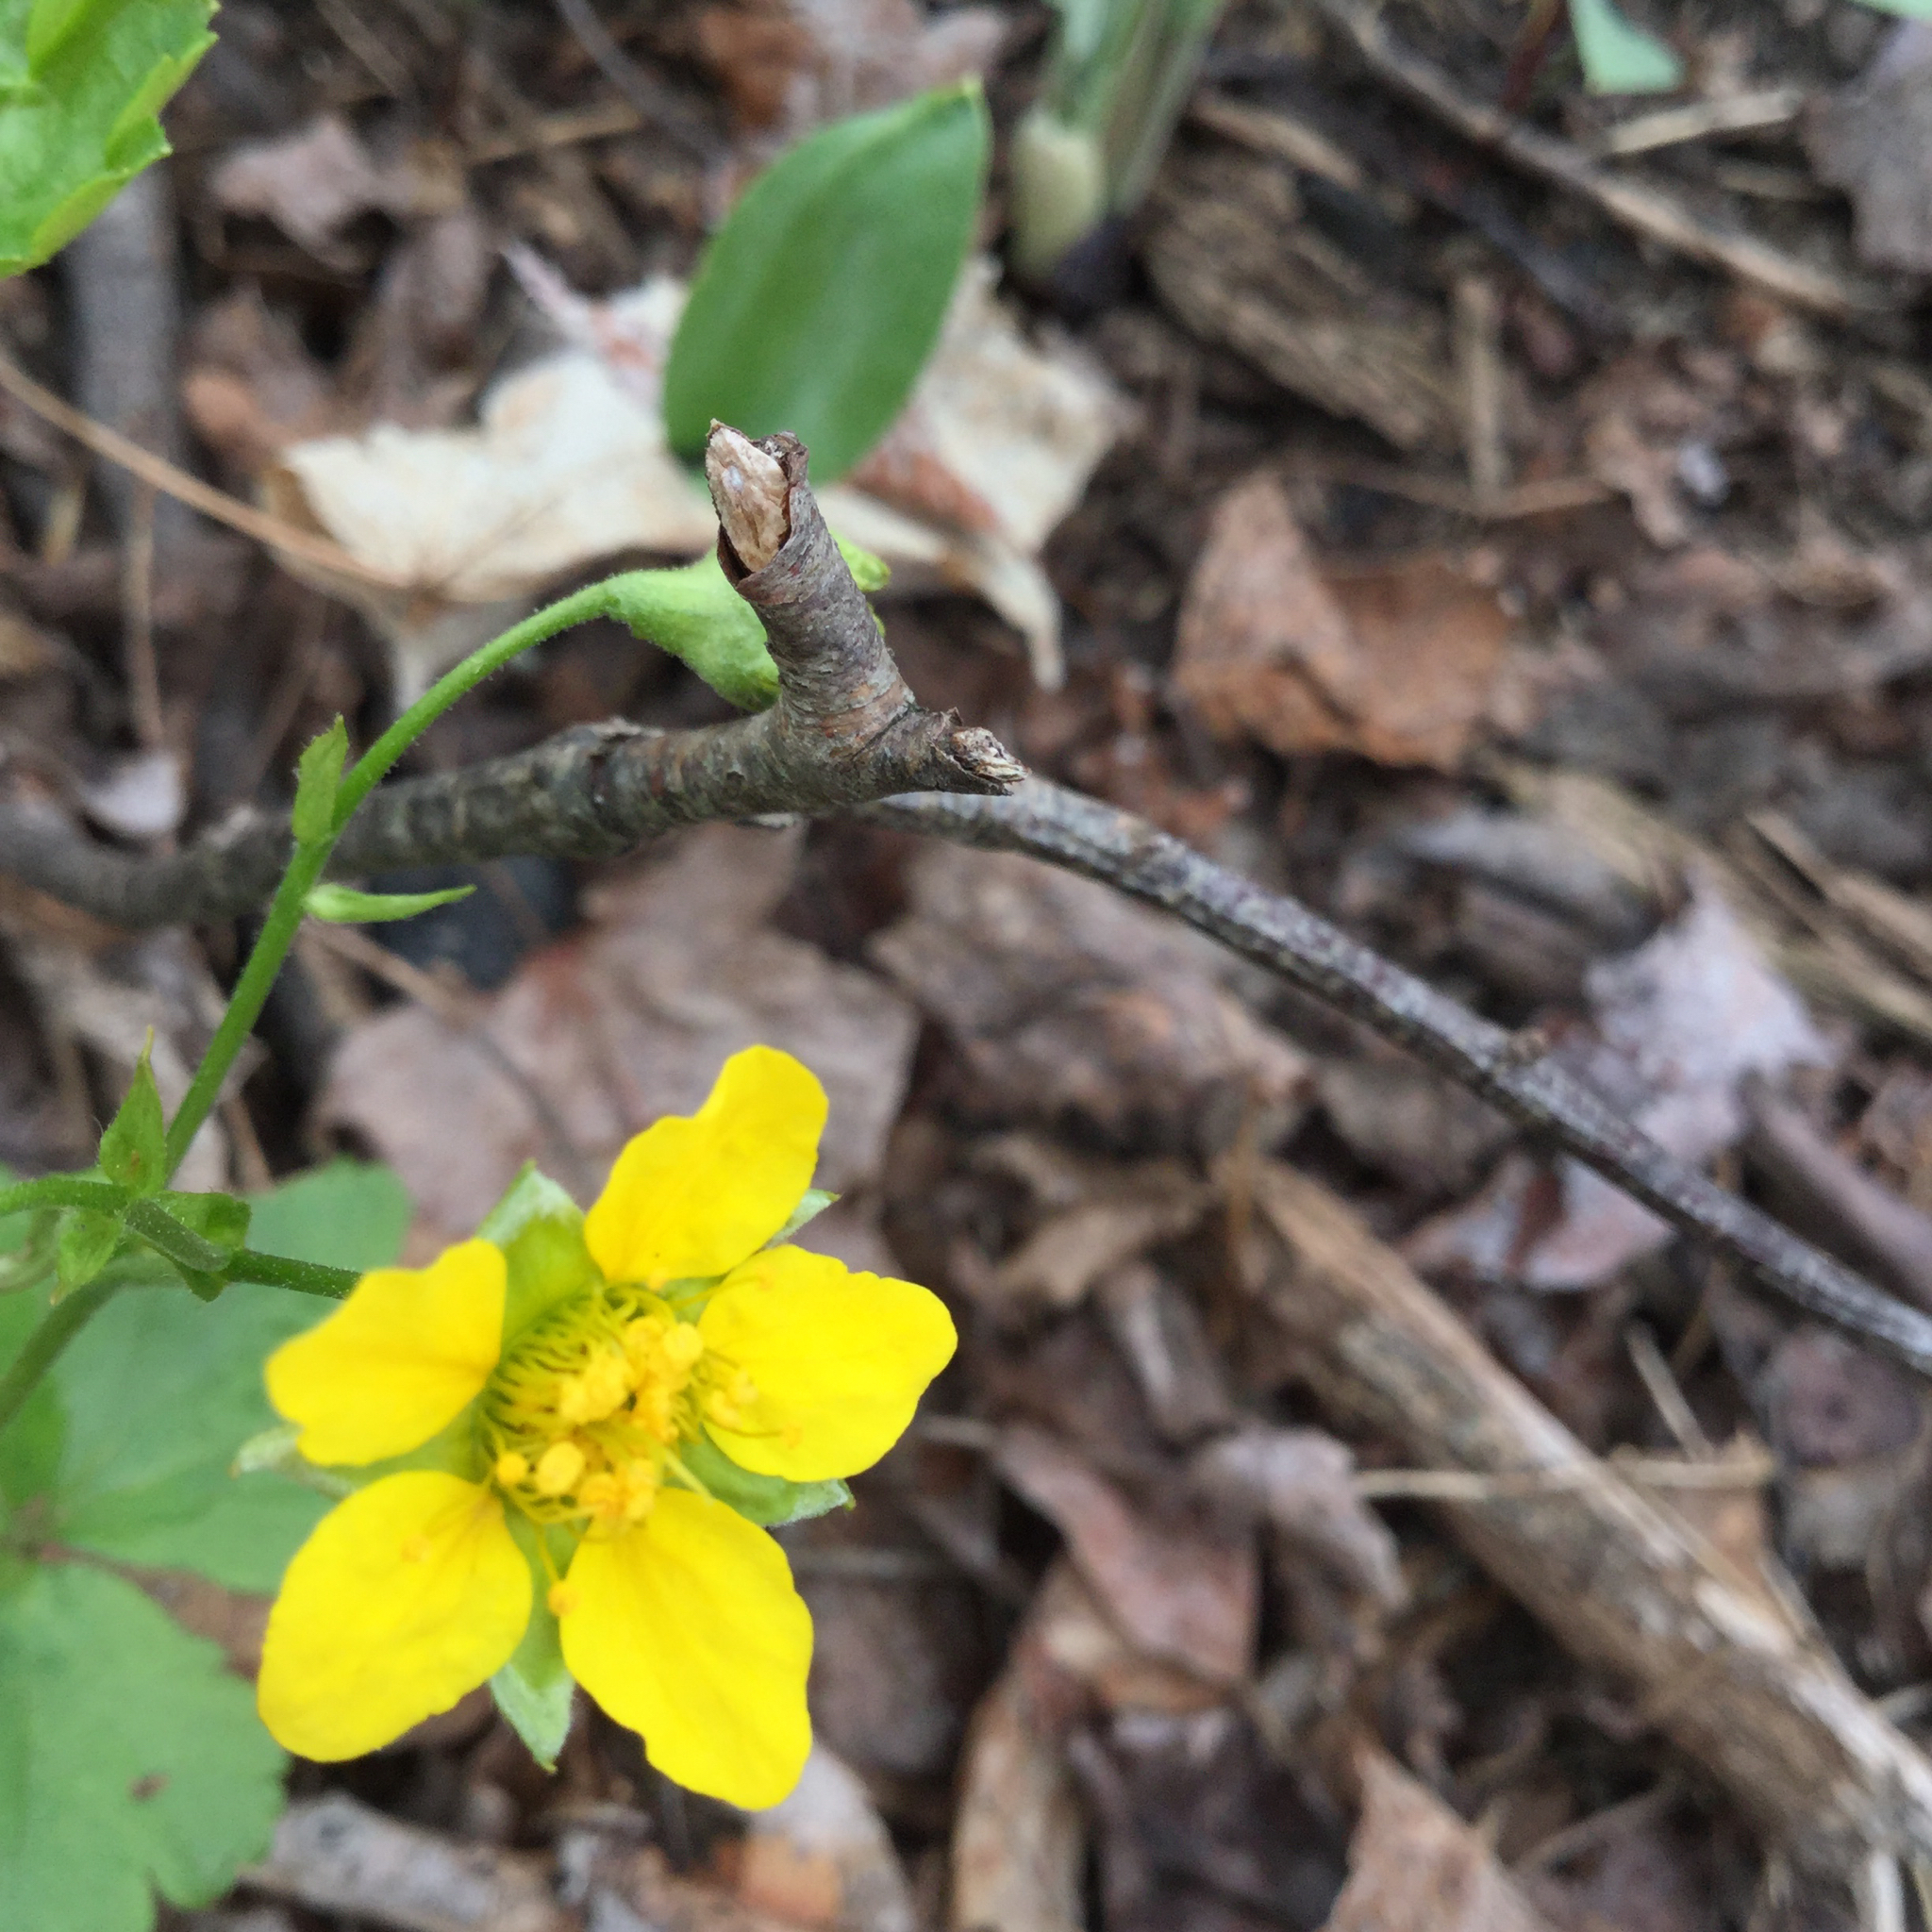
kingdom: Plantae
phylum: Tracheophyta
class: Magnoliopsida
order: Rosales
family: Rosaceae
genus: Geum
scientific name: Geum fragarioides
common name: Appalachian barren strawberry
